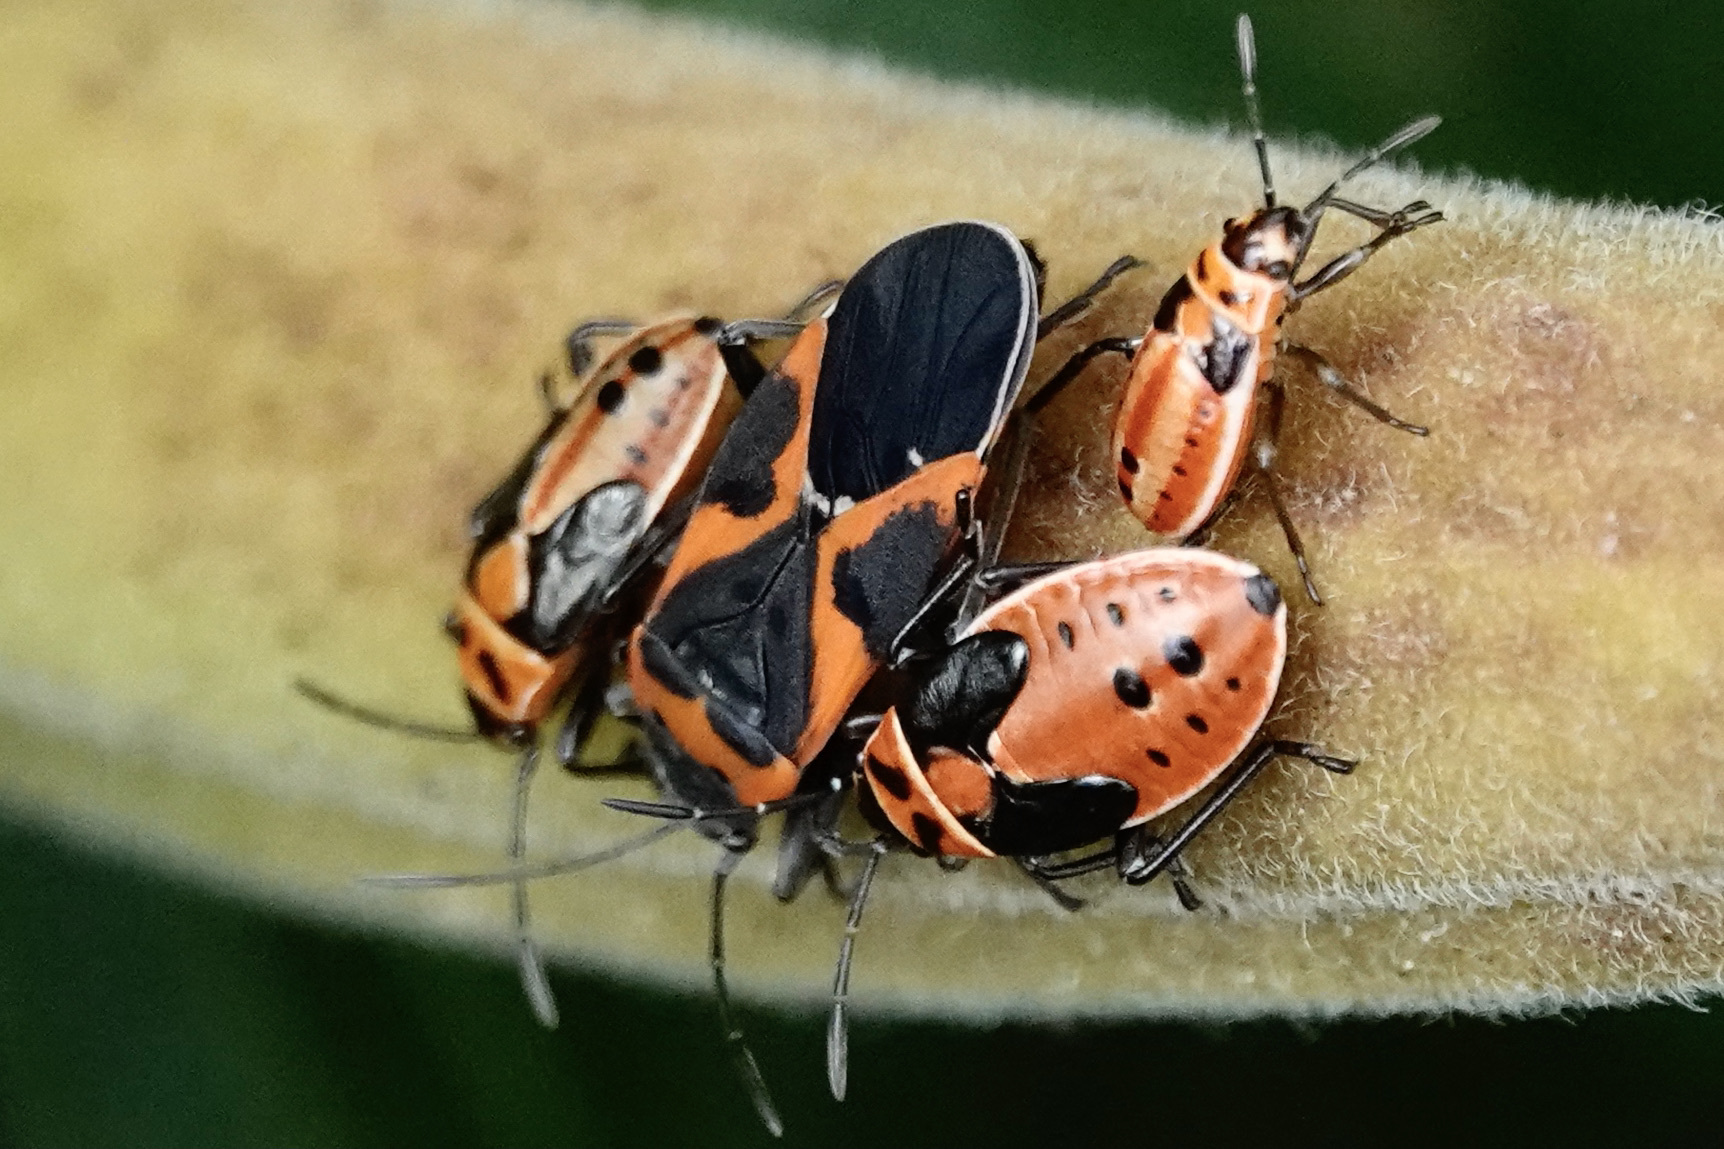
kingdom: Animalia
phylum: Arthropoda
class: Insecta
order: Hemiptera
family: Lygaeidae
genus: Lygaeus
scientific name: Lygaeus kalmii
